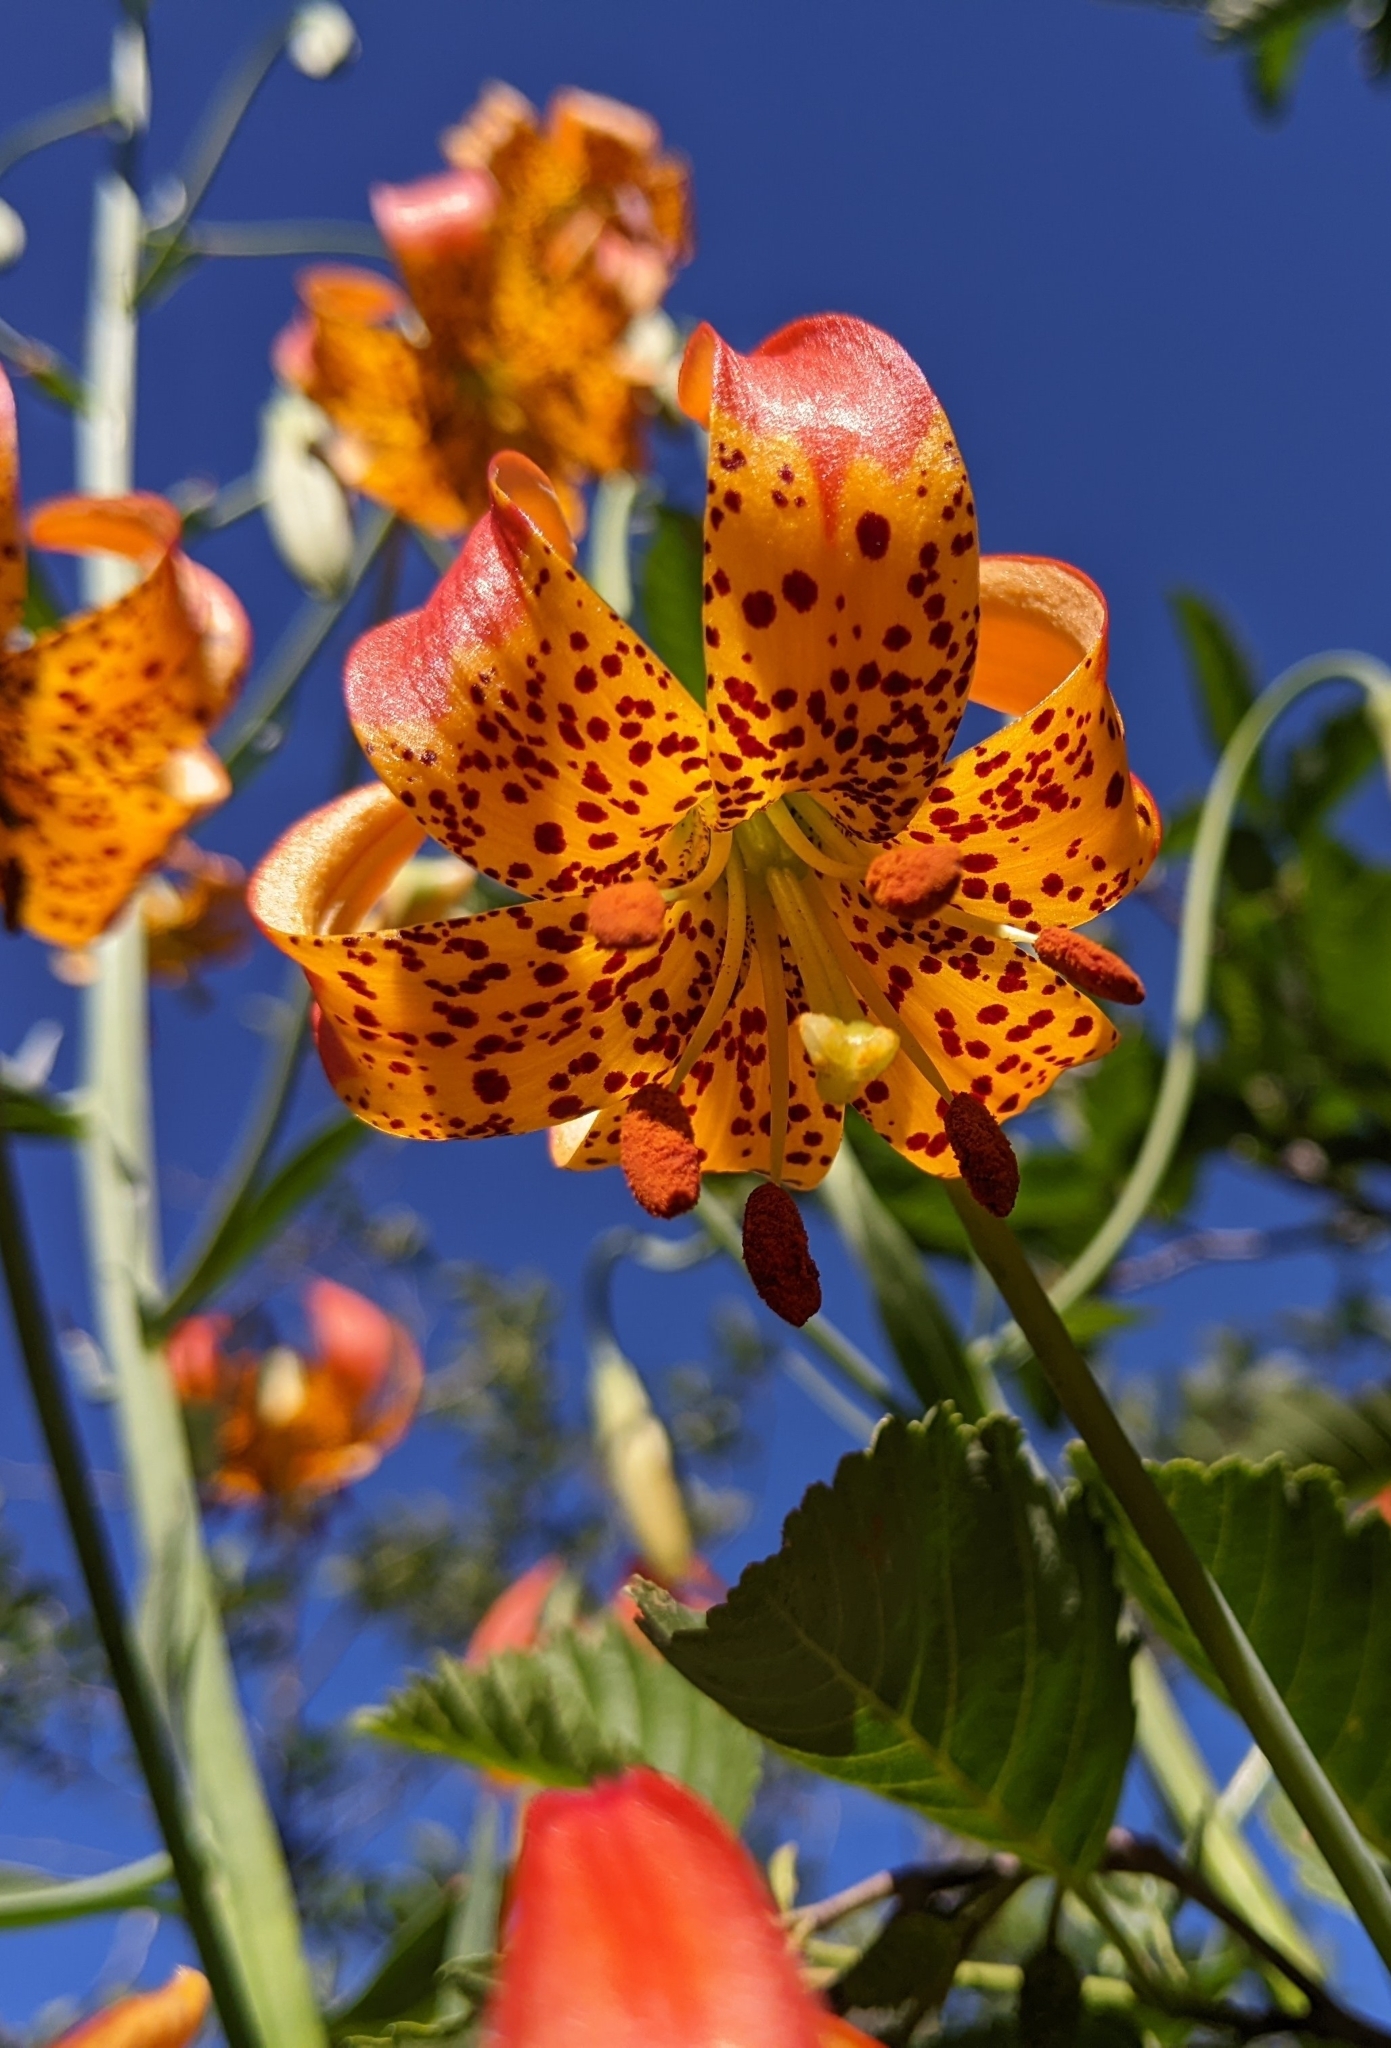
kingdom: Plantae
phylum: Tracheophyta
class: Liliopsida
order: Liliales
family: Liliaceae
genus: Lilium
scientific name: Lilium pardalinum
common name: Panther lily
